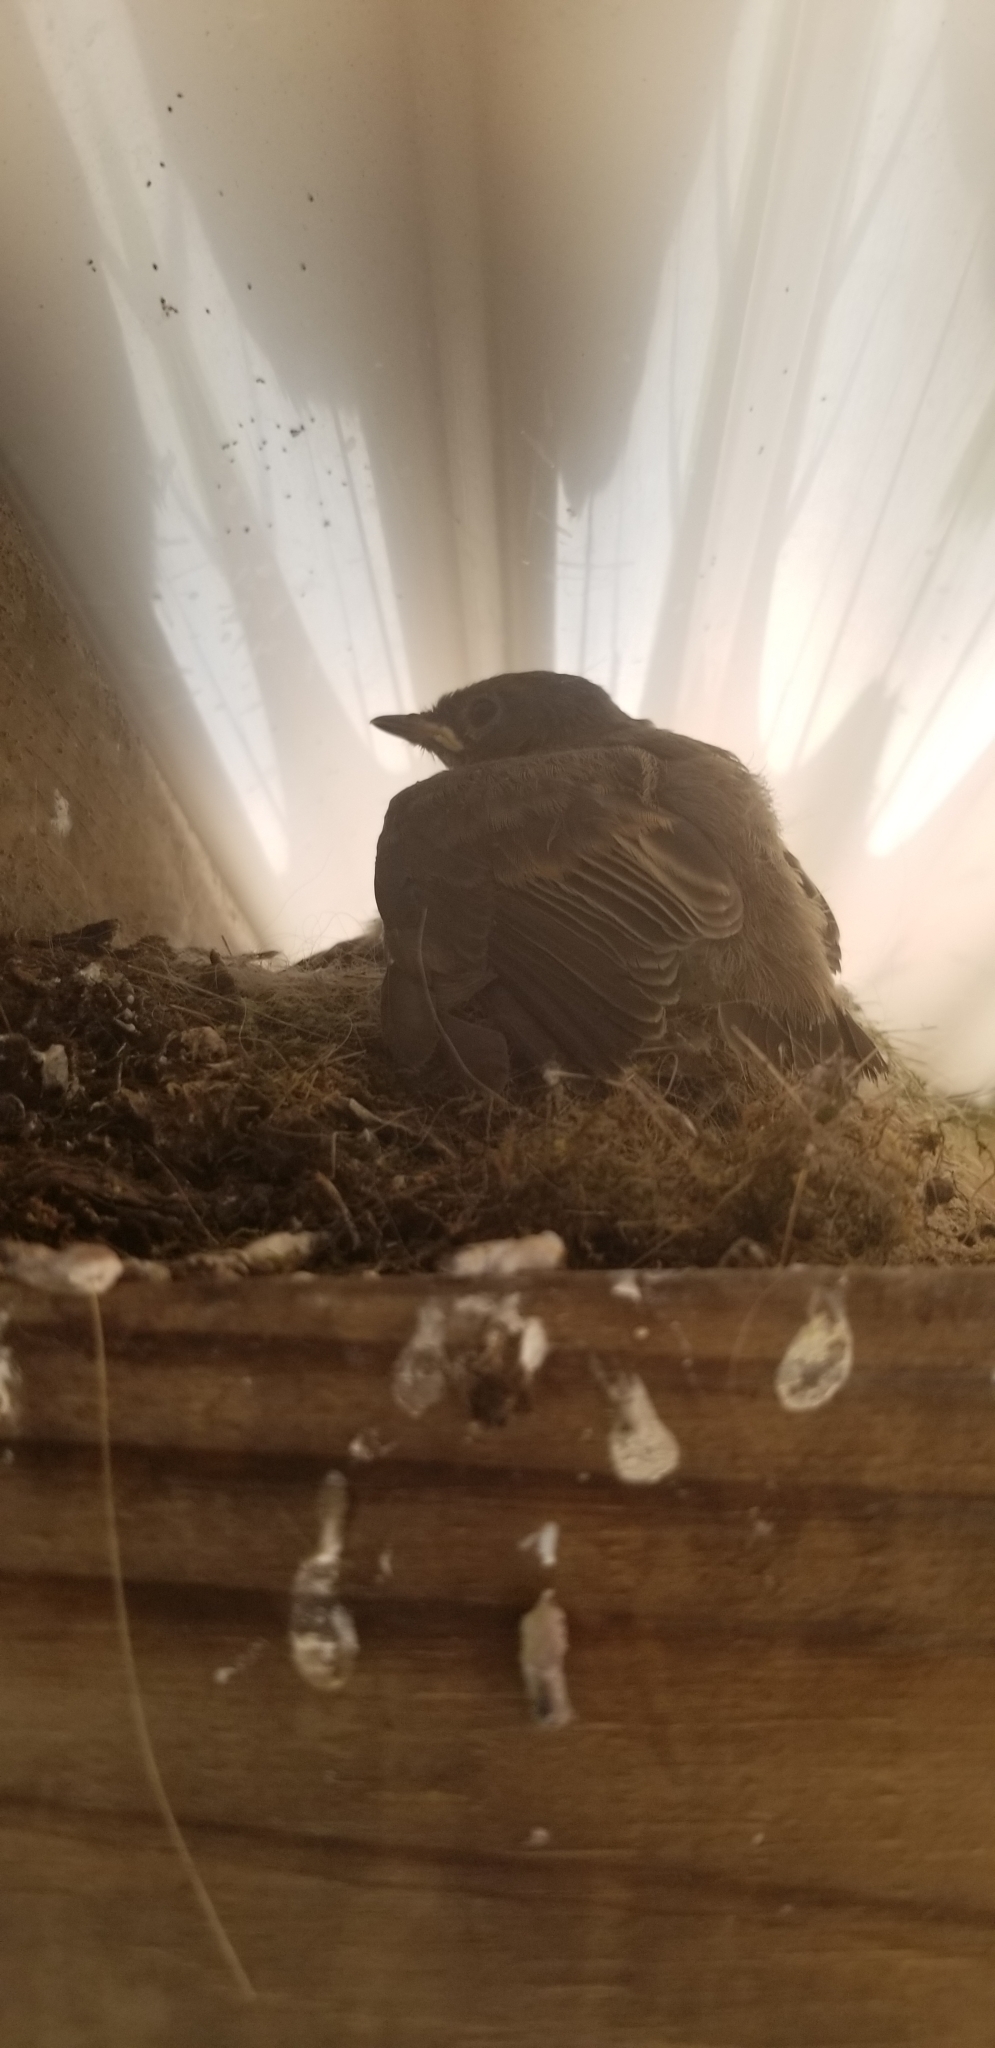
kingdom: Animalia
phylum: Chordata
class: Aves
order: Passeriformes
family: Tyrannidae
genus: Sayornis
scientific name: Sayornis phoebe
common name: Eastern phoebe
